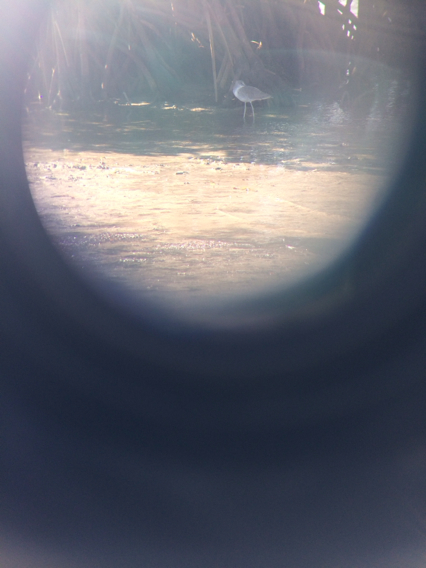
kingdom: Animalia
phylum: Chordata
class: Aves
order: Charadriiformes
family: Scolopacidae
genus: Tringa
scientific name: Tringa semipalmata
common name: Willet
